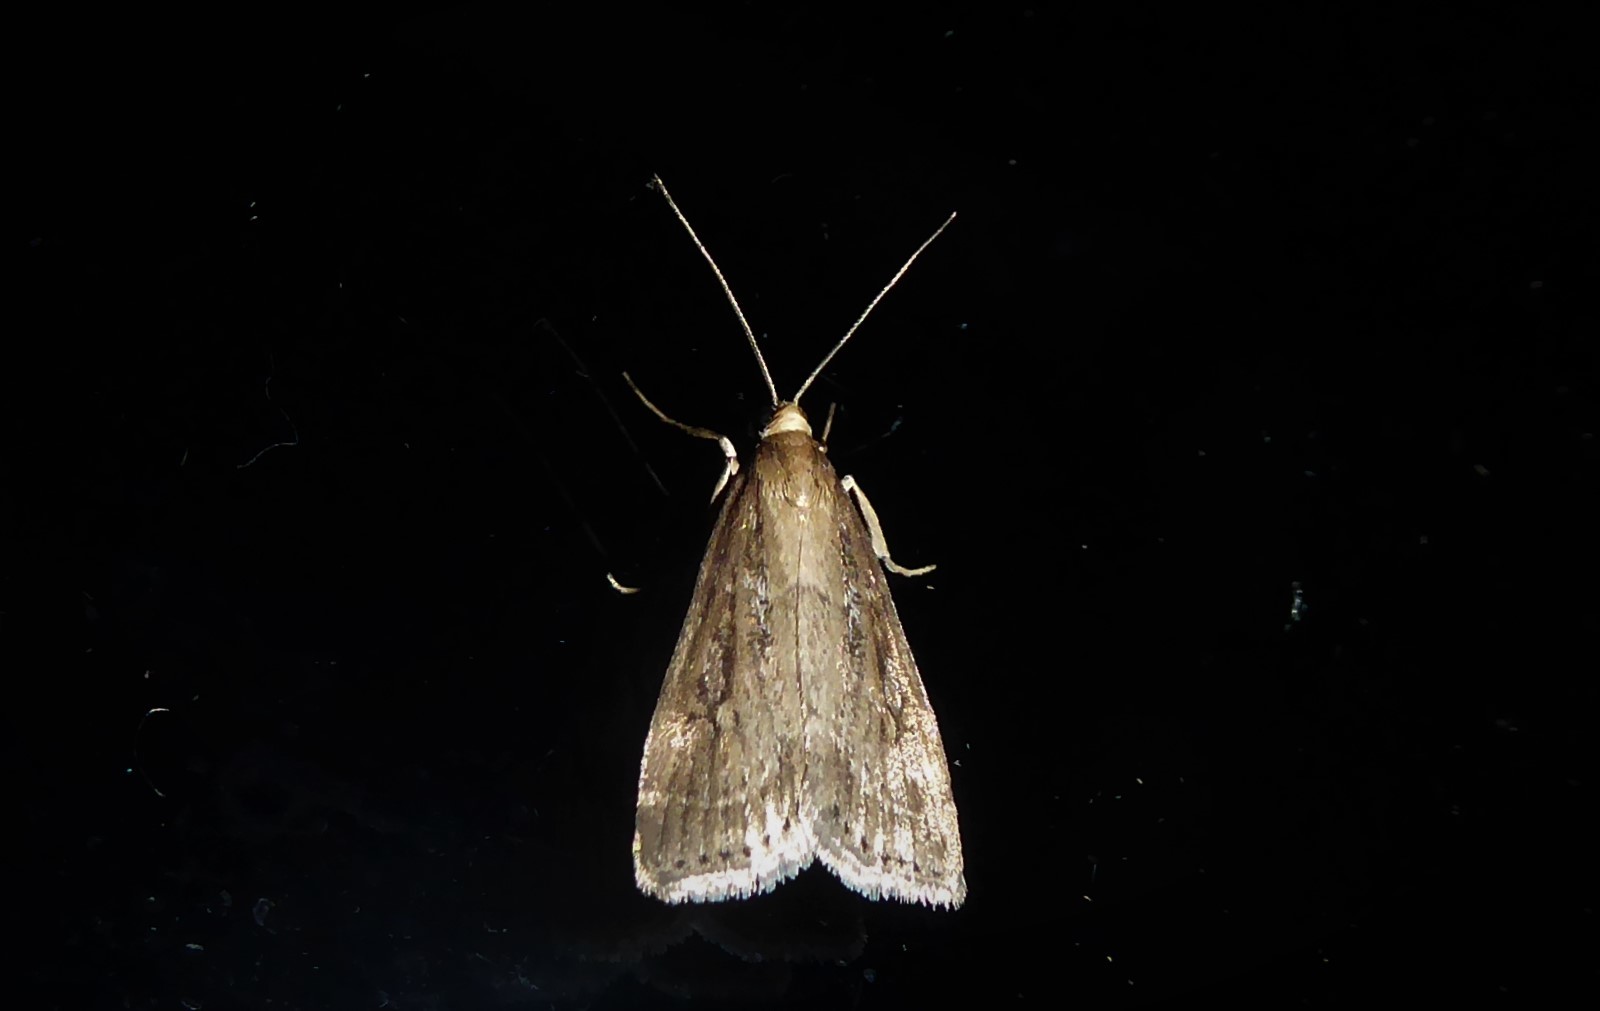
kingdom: Animalia
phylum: Arthropoda
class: Insecta
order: Lepidoptera
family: Crambidae
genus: Eudonia
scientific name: Eudonia octophora
